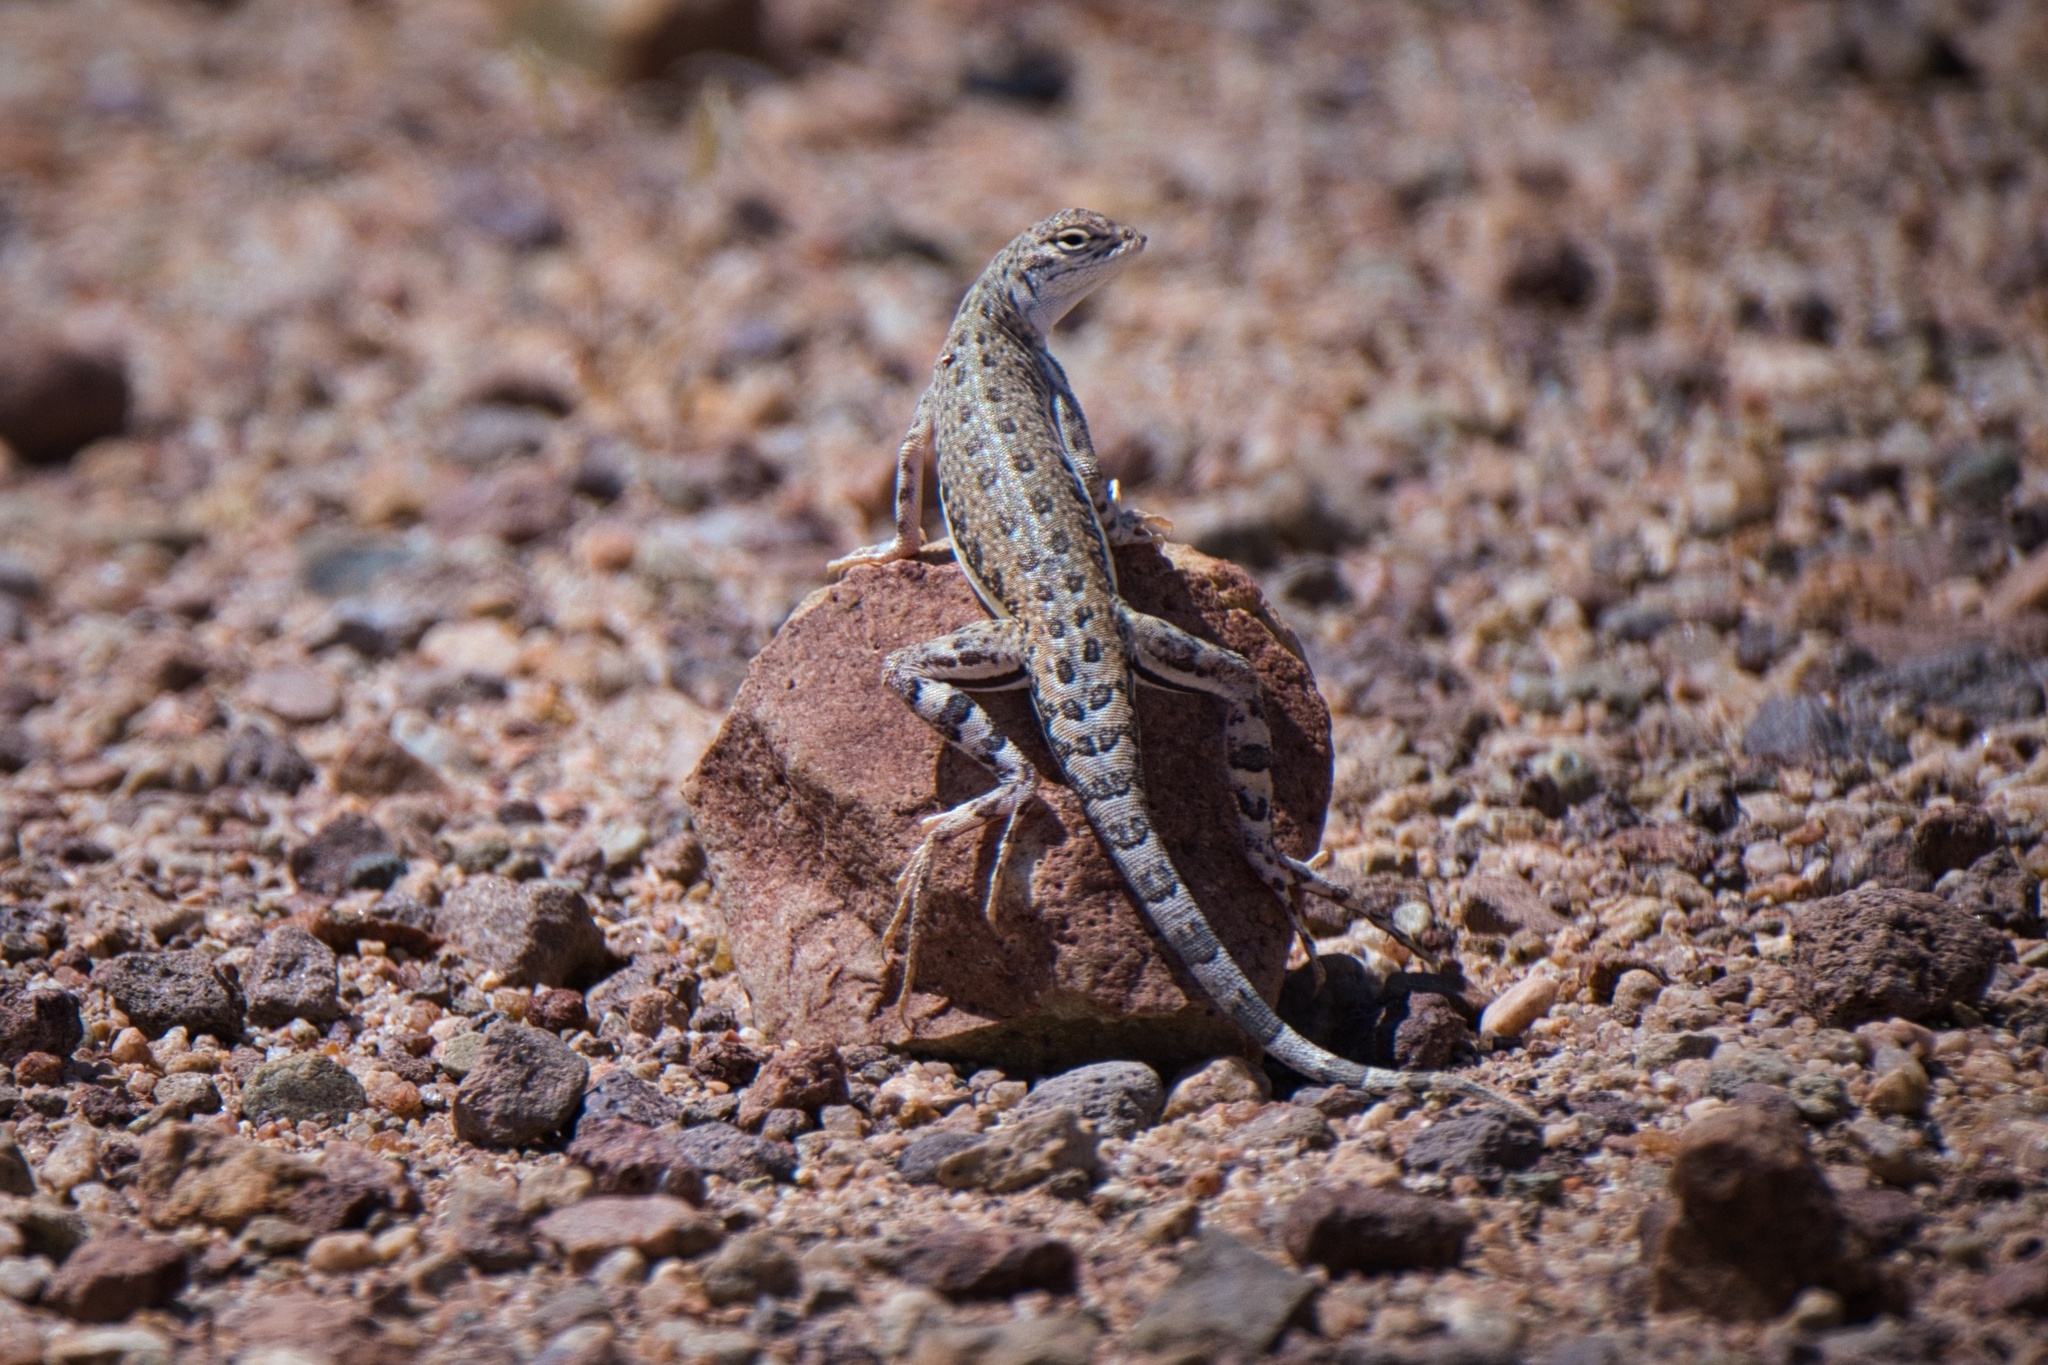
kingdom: Animalia
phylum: Chordata
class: Squamata
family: Phrynosomatidae
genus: Callisaurus
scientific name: Callisaurus draconoides
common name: Zebra-tailed lizard
